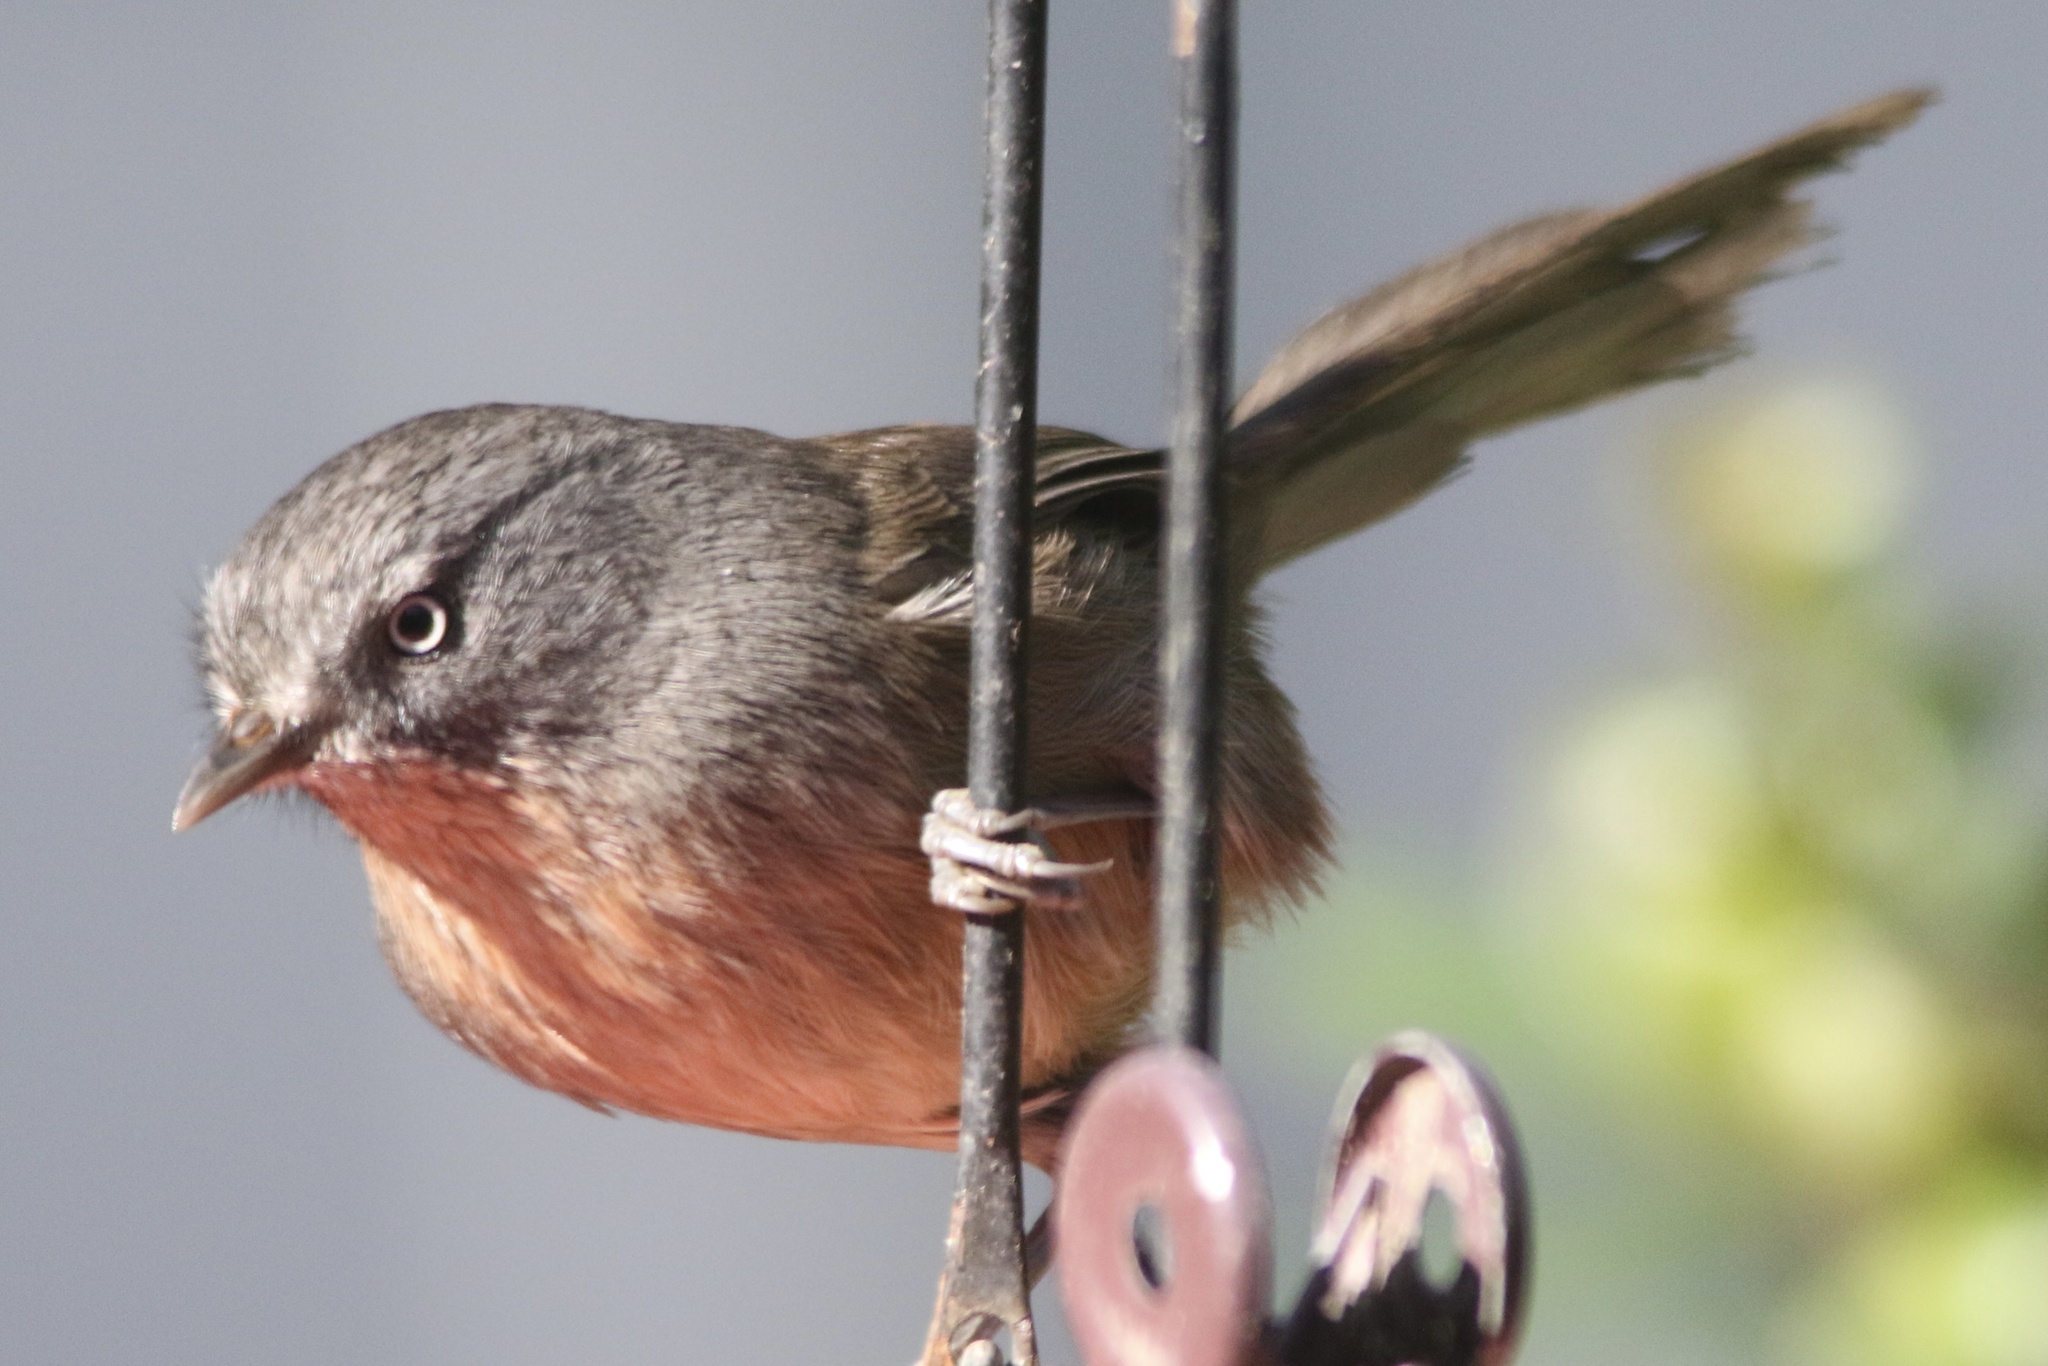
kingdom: Animalia
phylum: Chordata
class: Aves
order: Passeriformes
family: Sylviidae
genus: Chamaea
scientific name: Chamaea fasciata
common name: Wrentit
